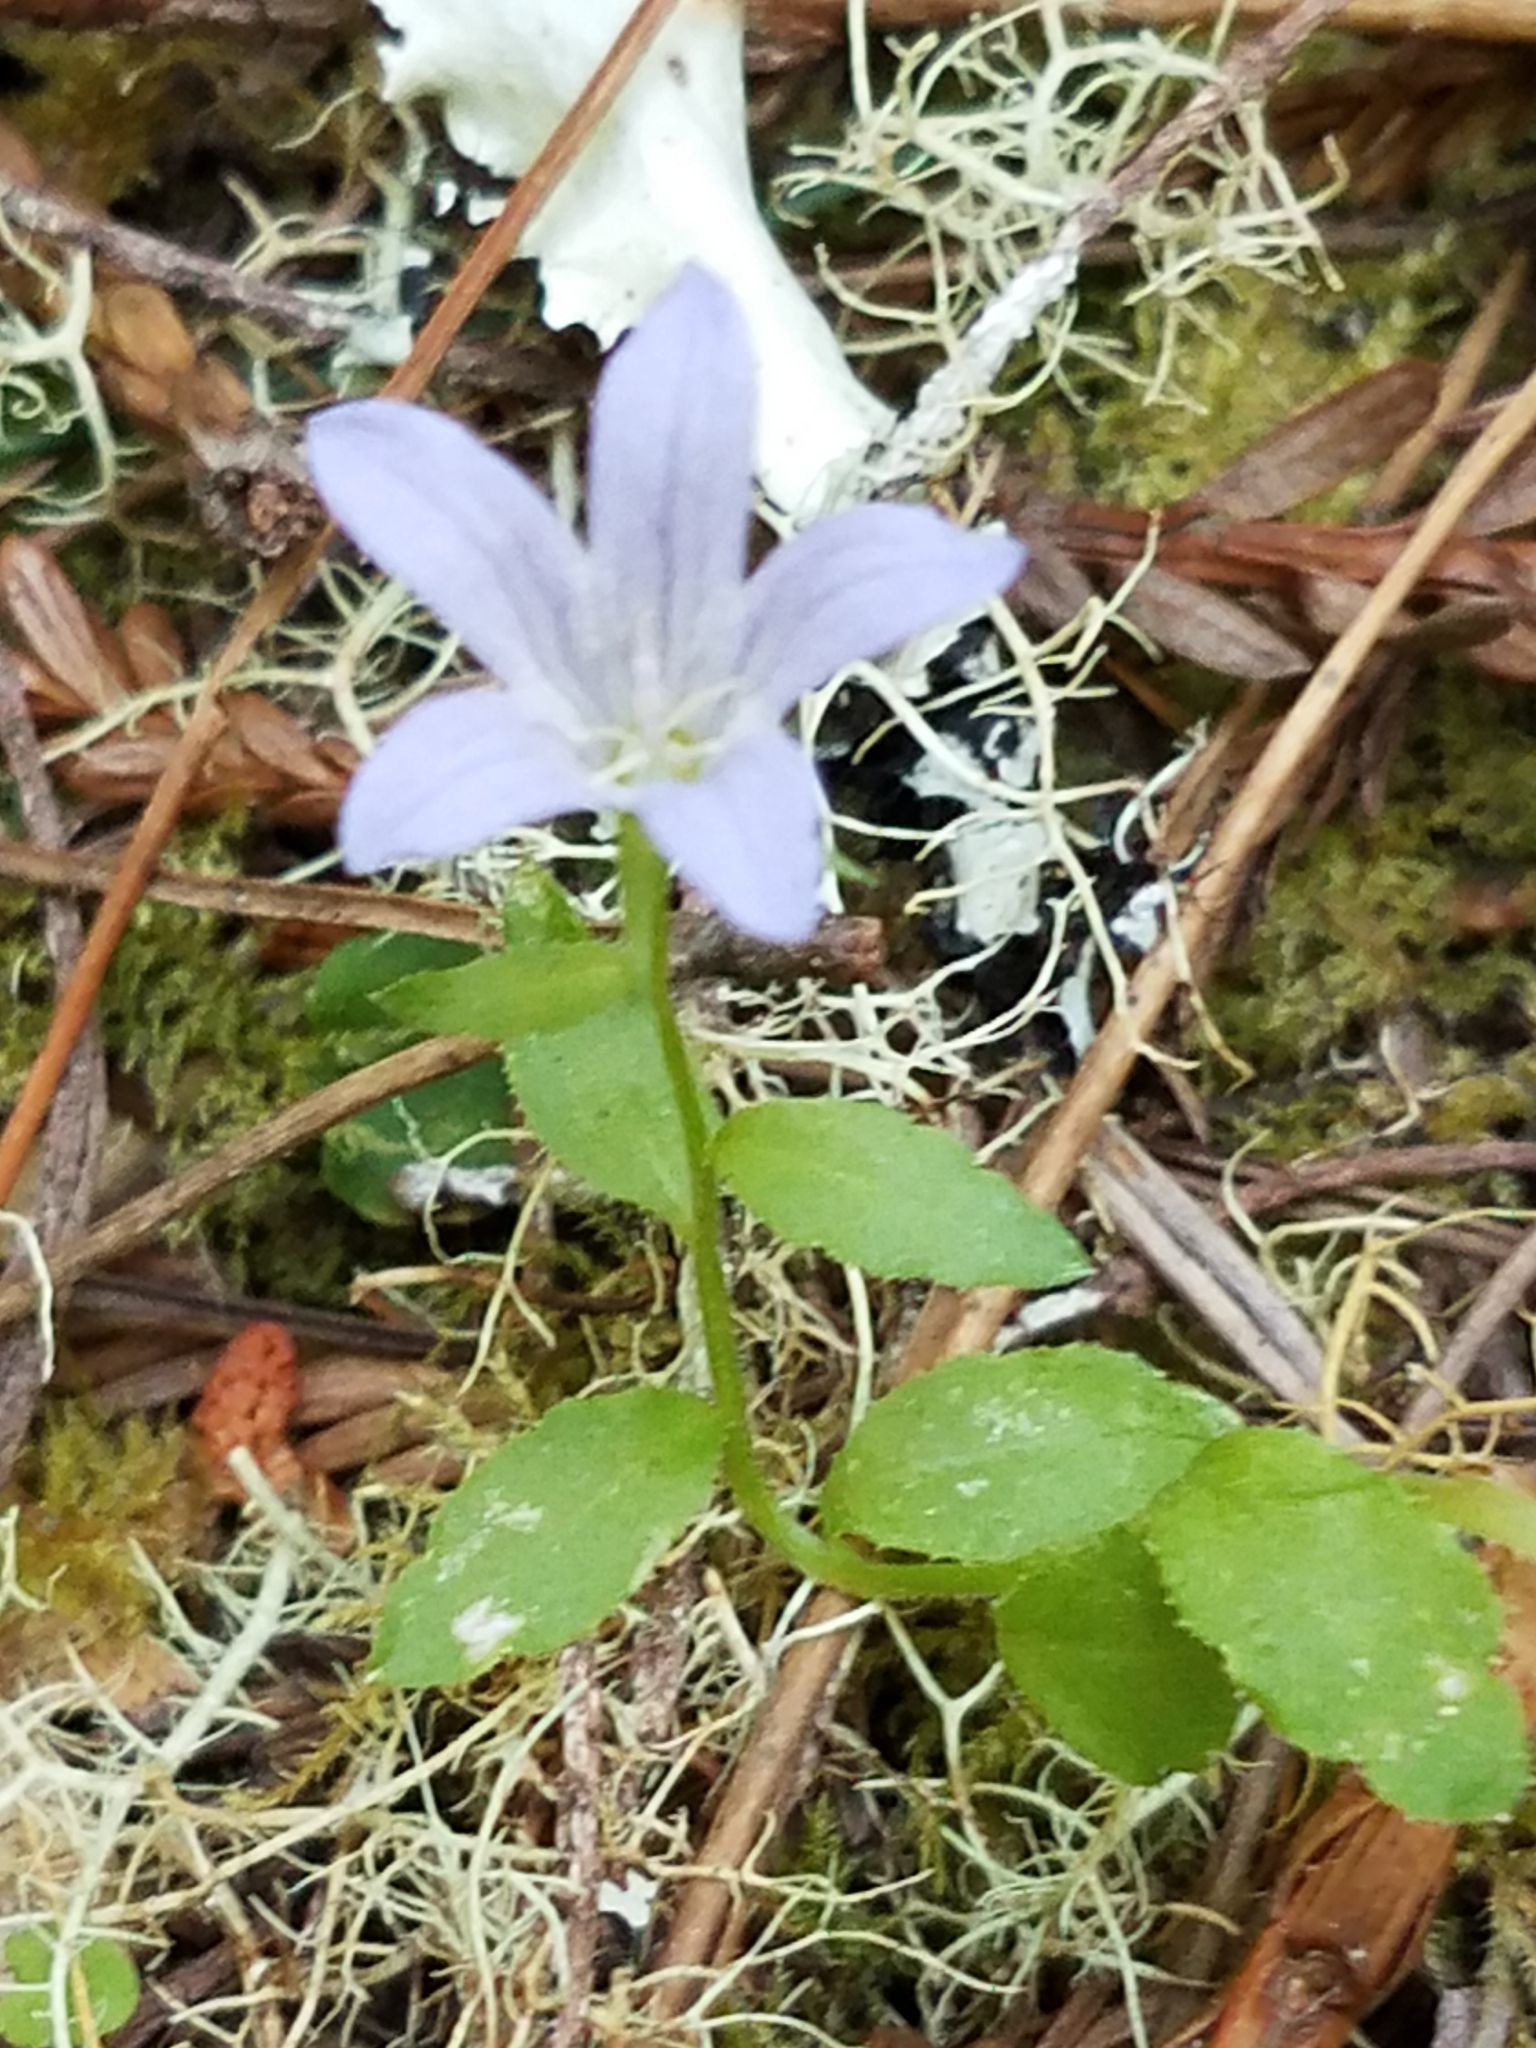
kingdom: Plantae
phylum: Tracheophyta
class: Magnoliopsida
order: Asterales
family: Campanulaceae
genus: Eastwoodiella
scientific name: Eastwoodiella californica
